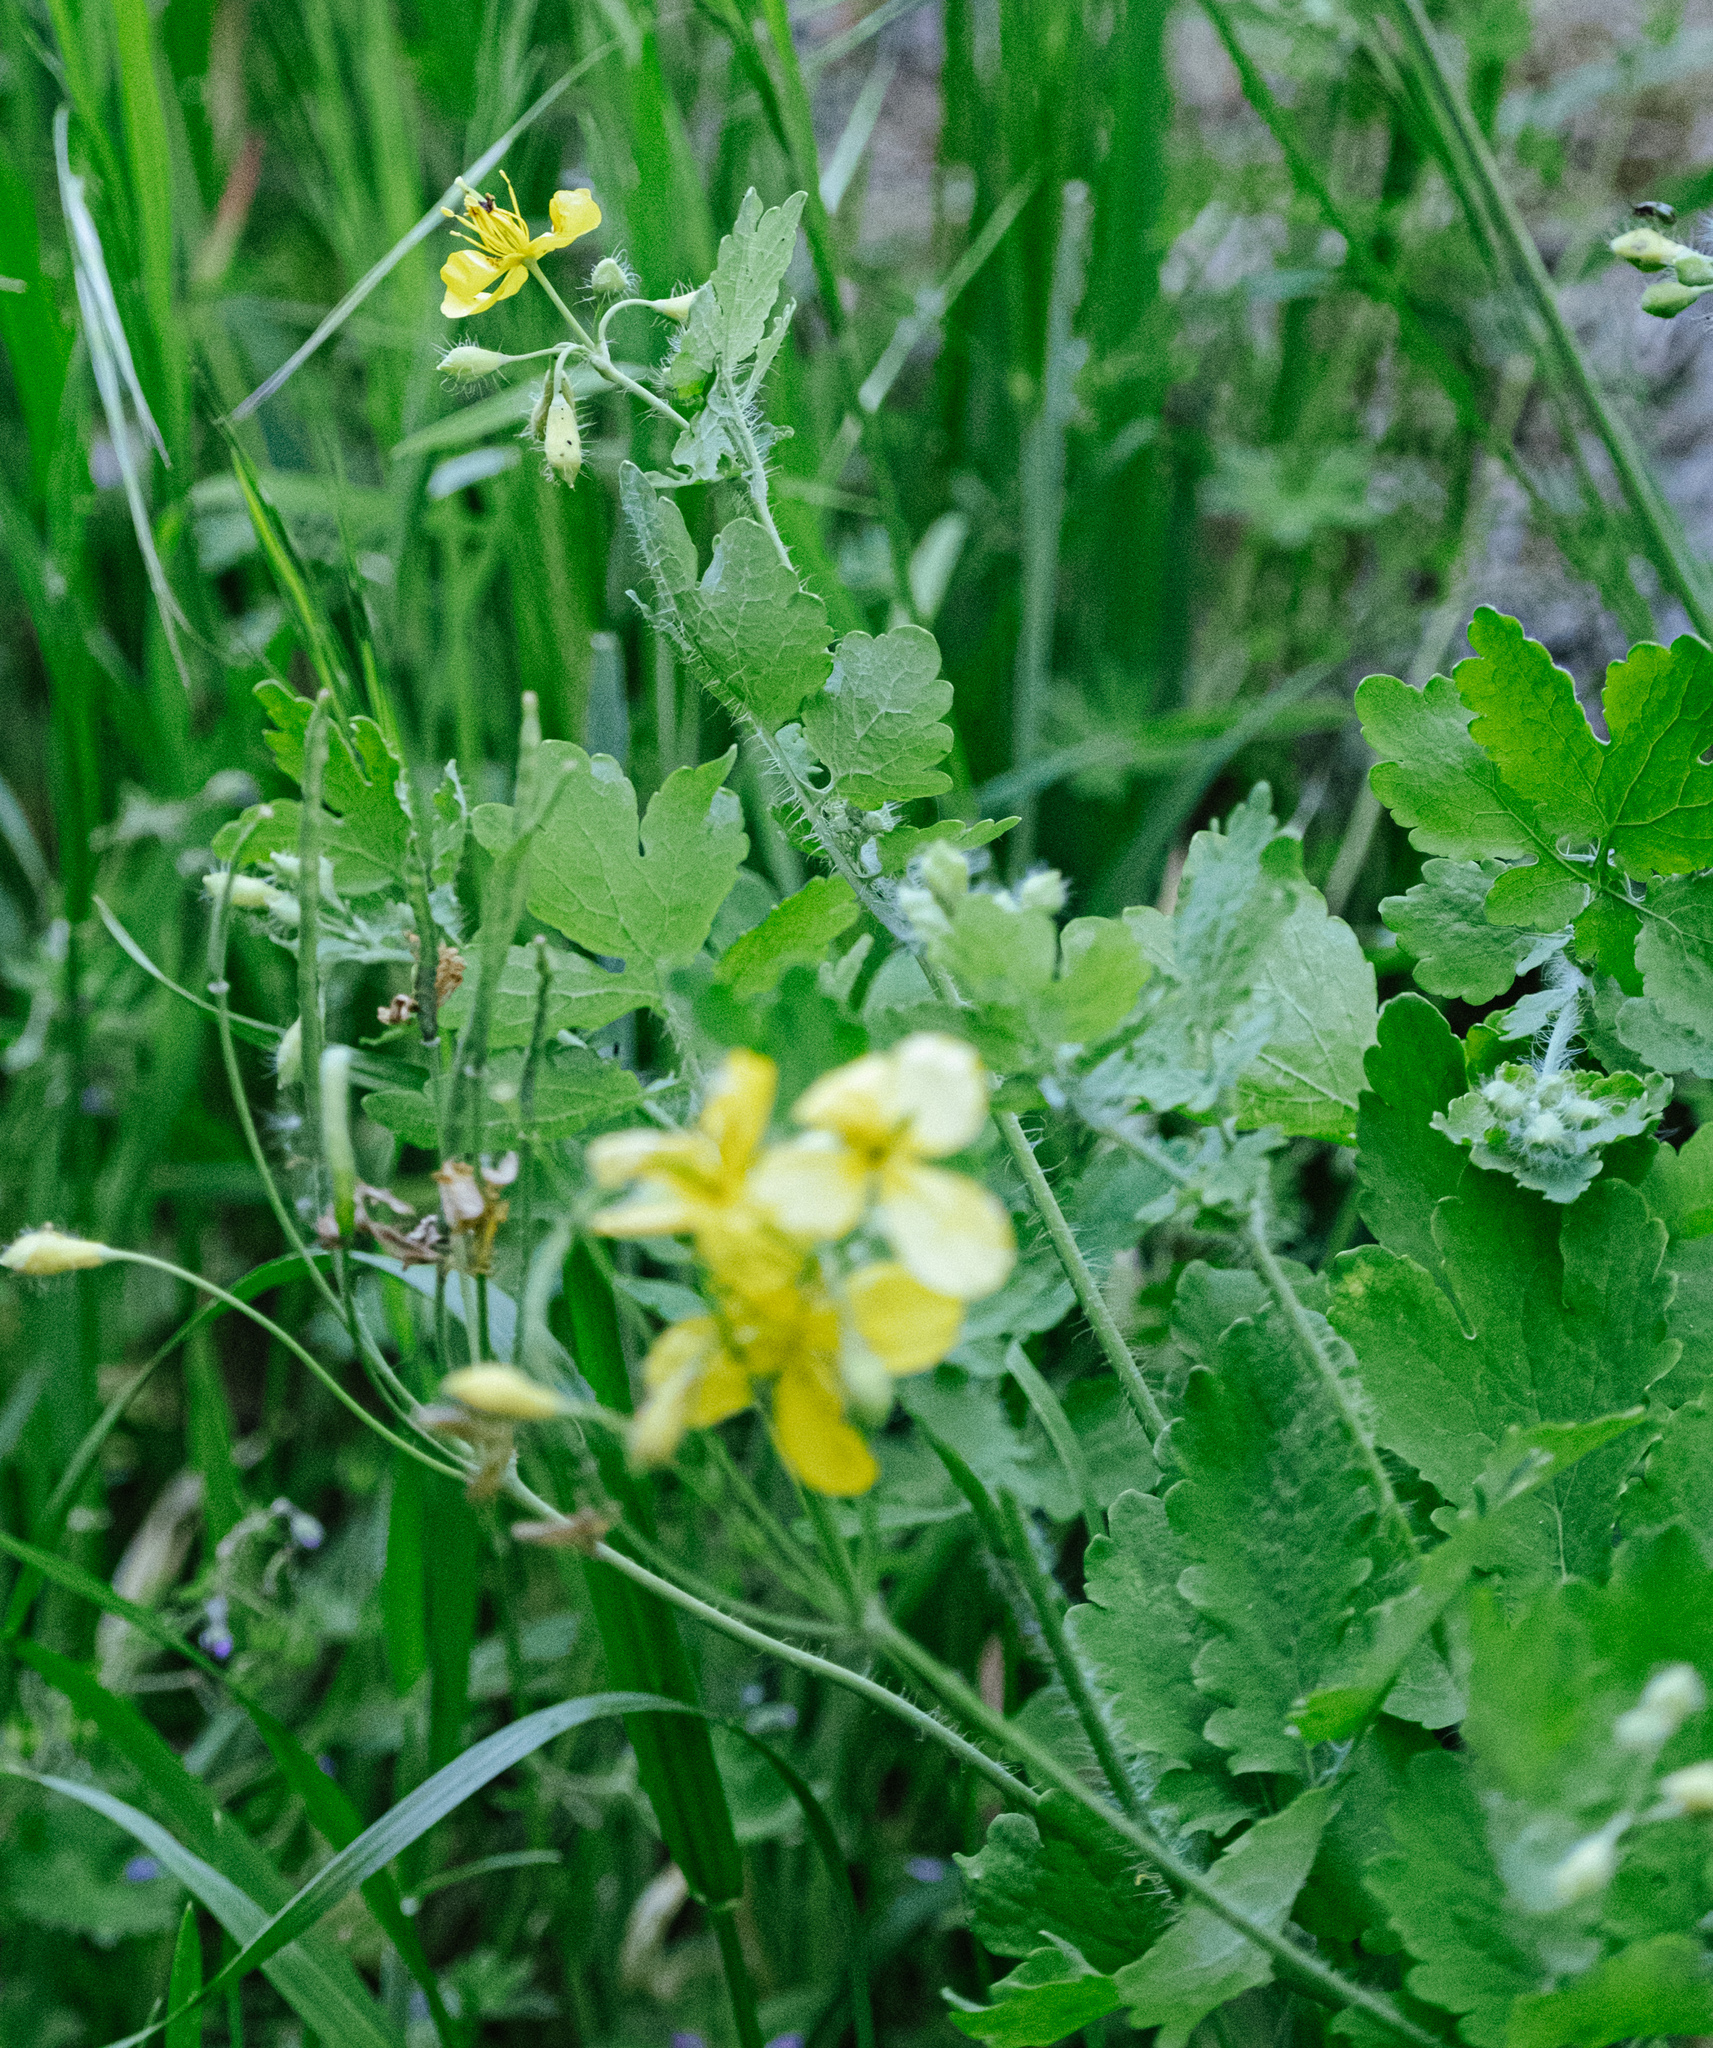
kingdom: Plantae
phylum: Tracheophyta
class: Magnoliopsida
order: Ranunculales
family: Papaveraceae
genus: Chelidonium
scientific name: Chelidonium majus
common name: Greater celandine
